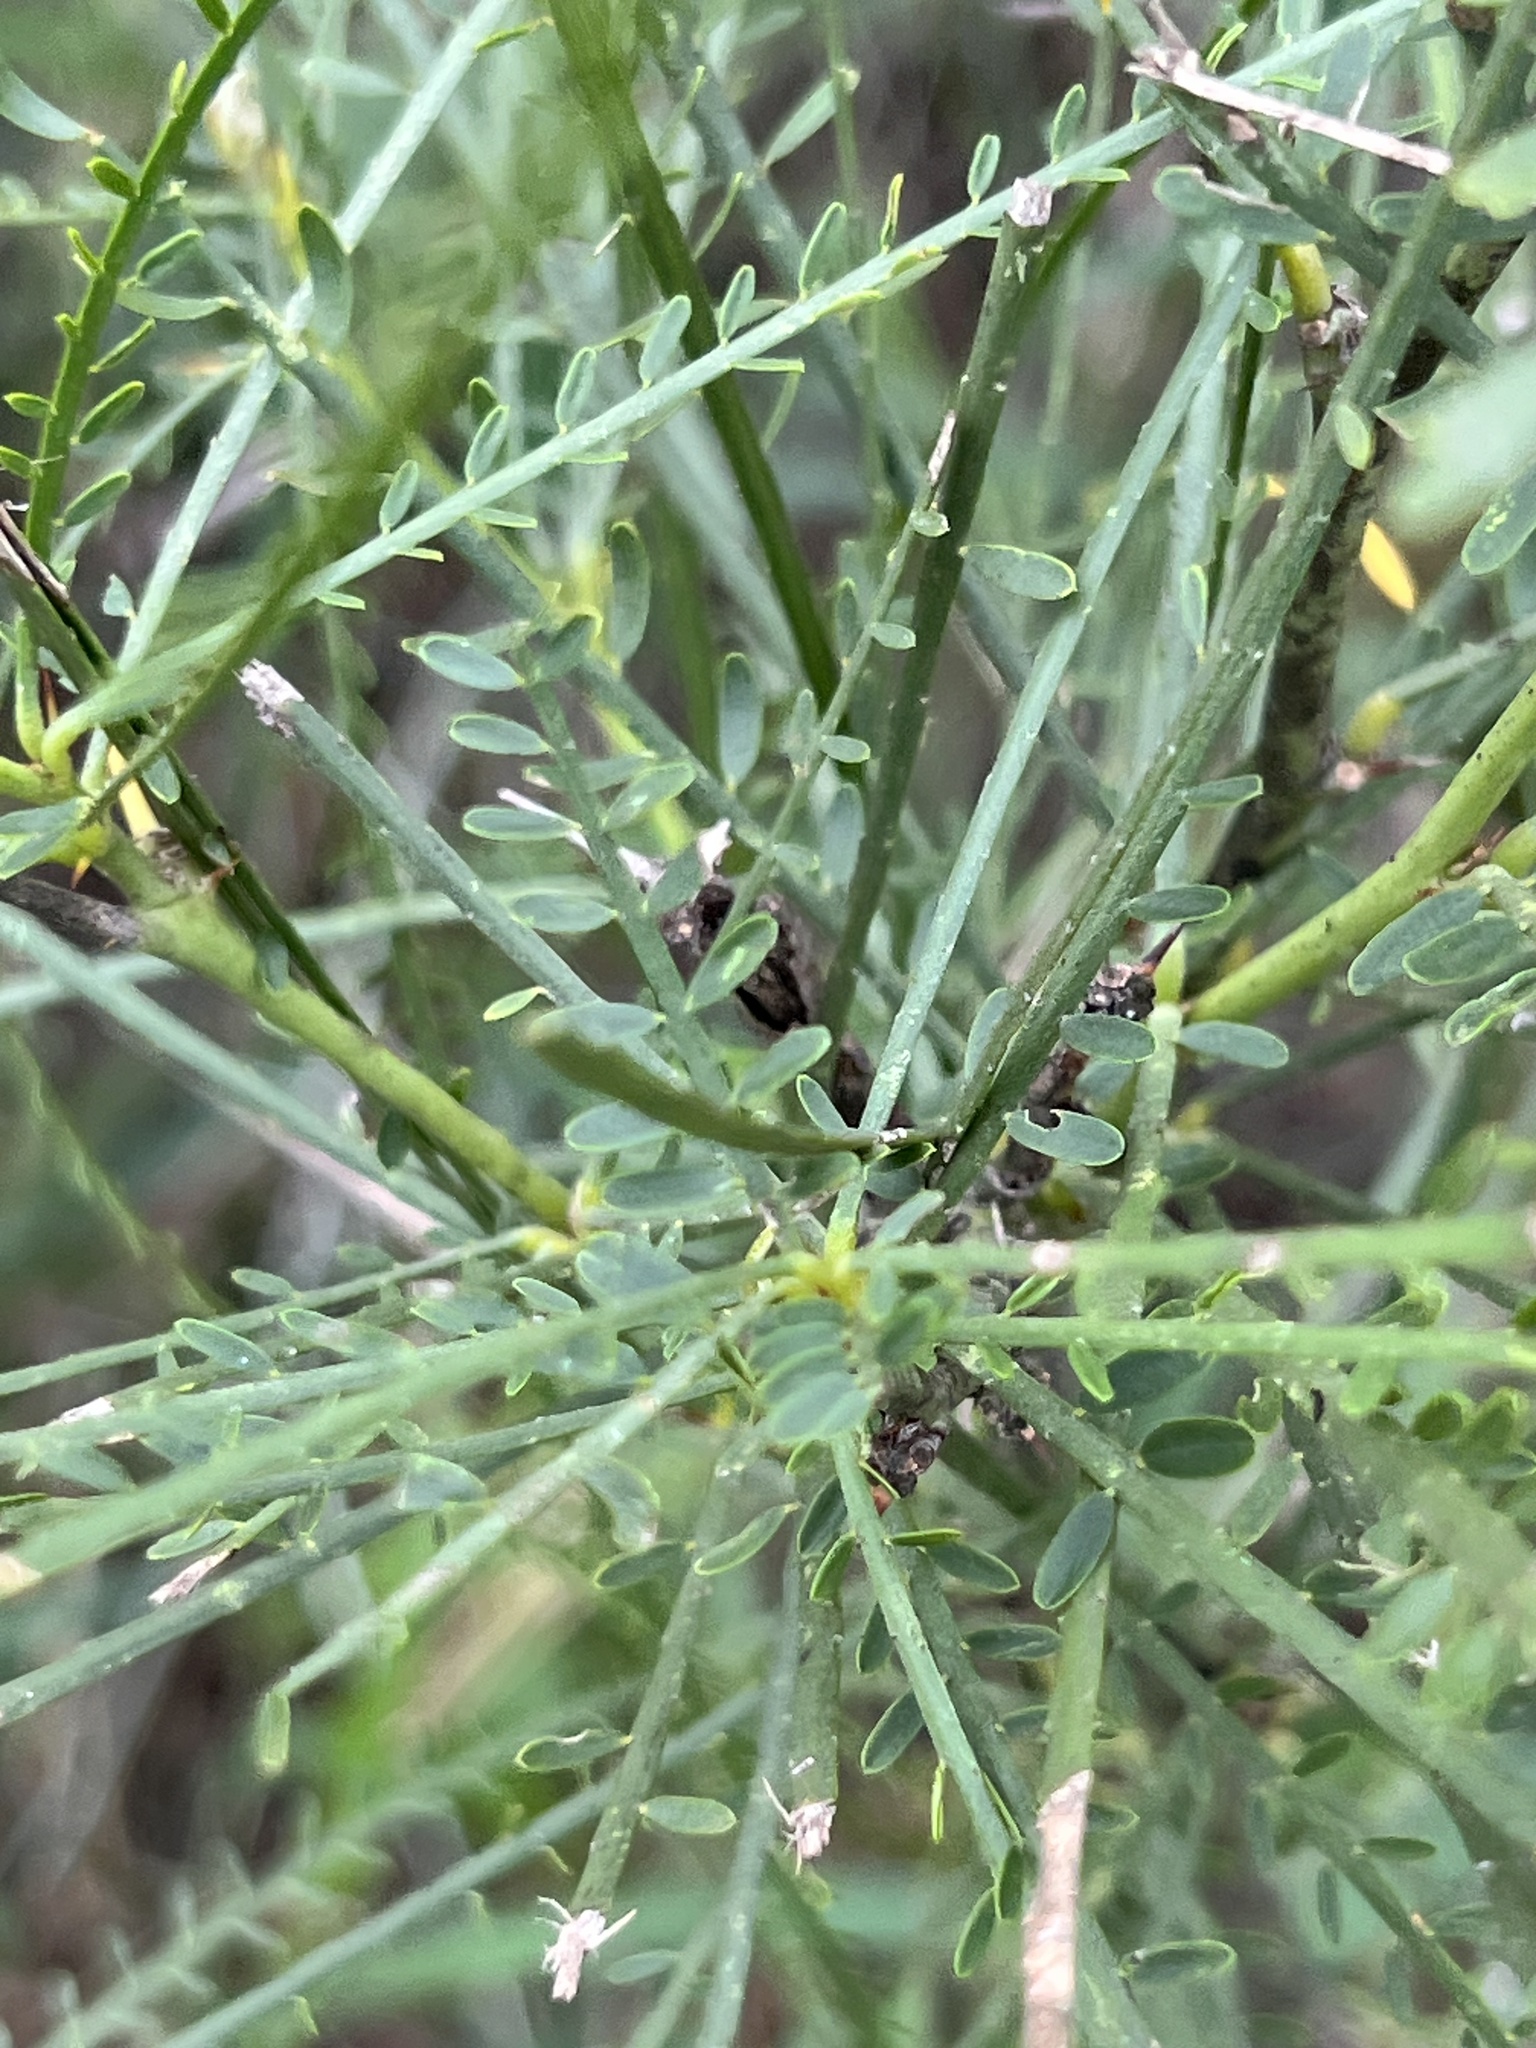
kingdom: Plantae
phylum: Tracheophyta
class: Magnoliopsida
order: Fabales
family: Fabaceae
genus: Parkinsonia
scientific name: Parkinsonia aculeata
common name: Jerusalem thorn
